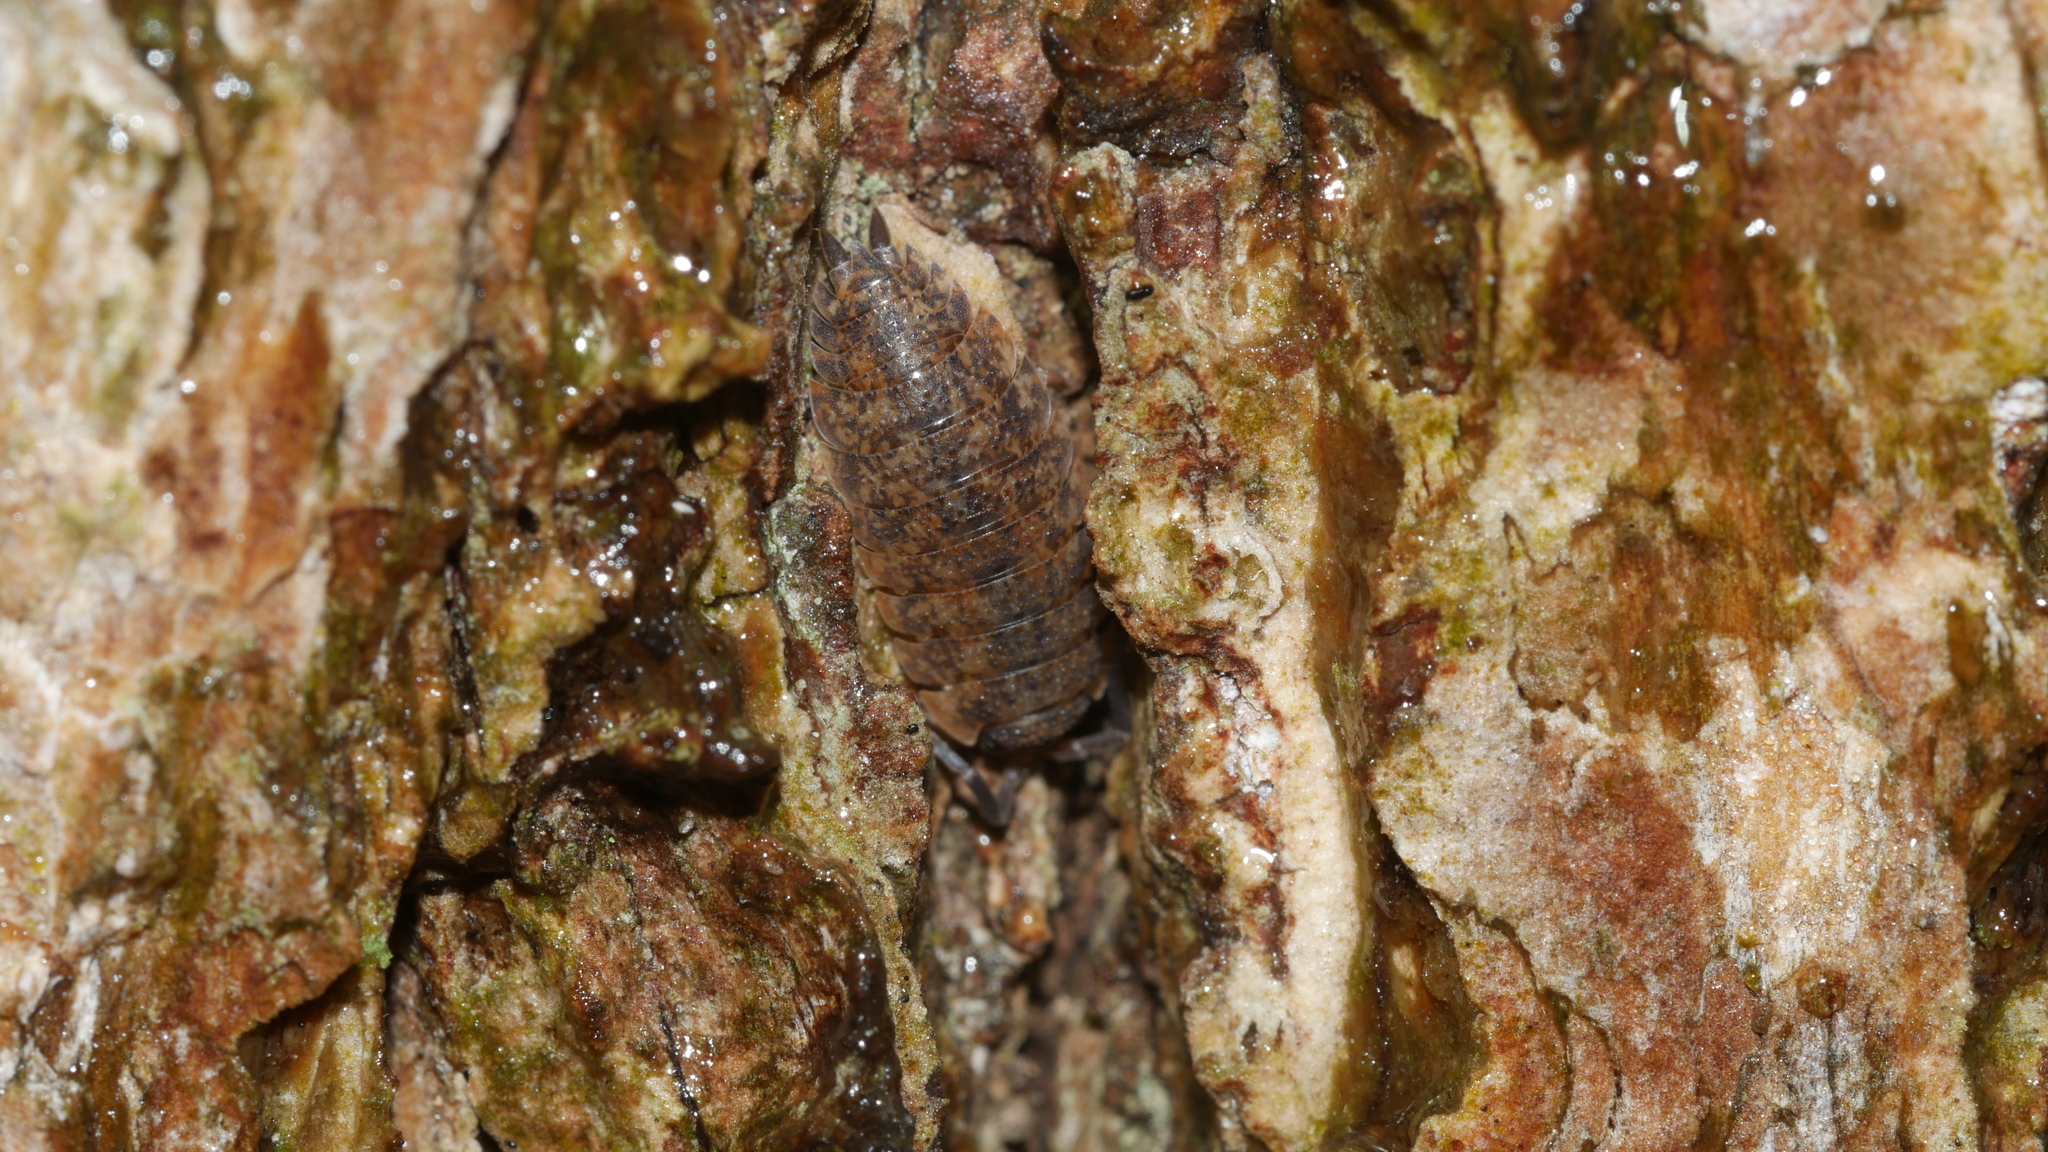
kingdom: Animalia
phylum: Arthropoda
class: Malacostraca
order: Isopoda
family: Porcellionidae
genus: Porcellio
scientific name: Porcellio scaber
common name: Common rough woodlouse
